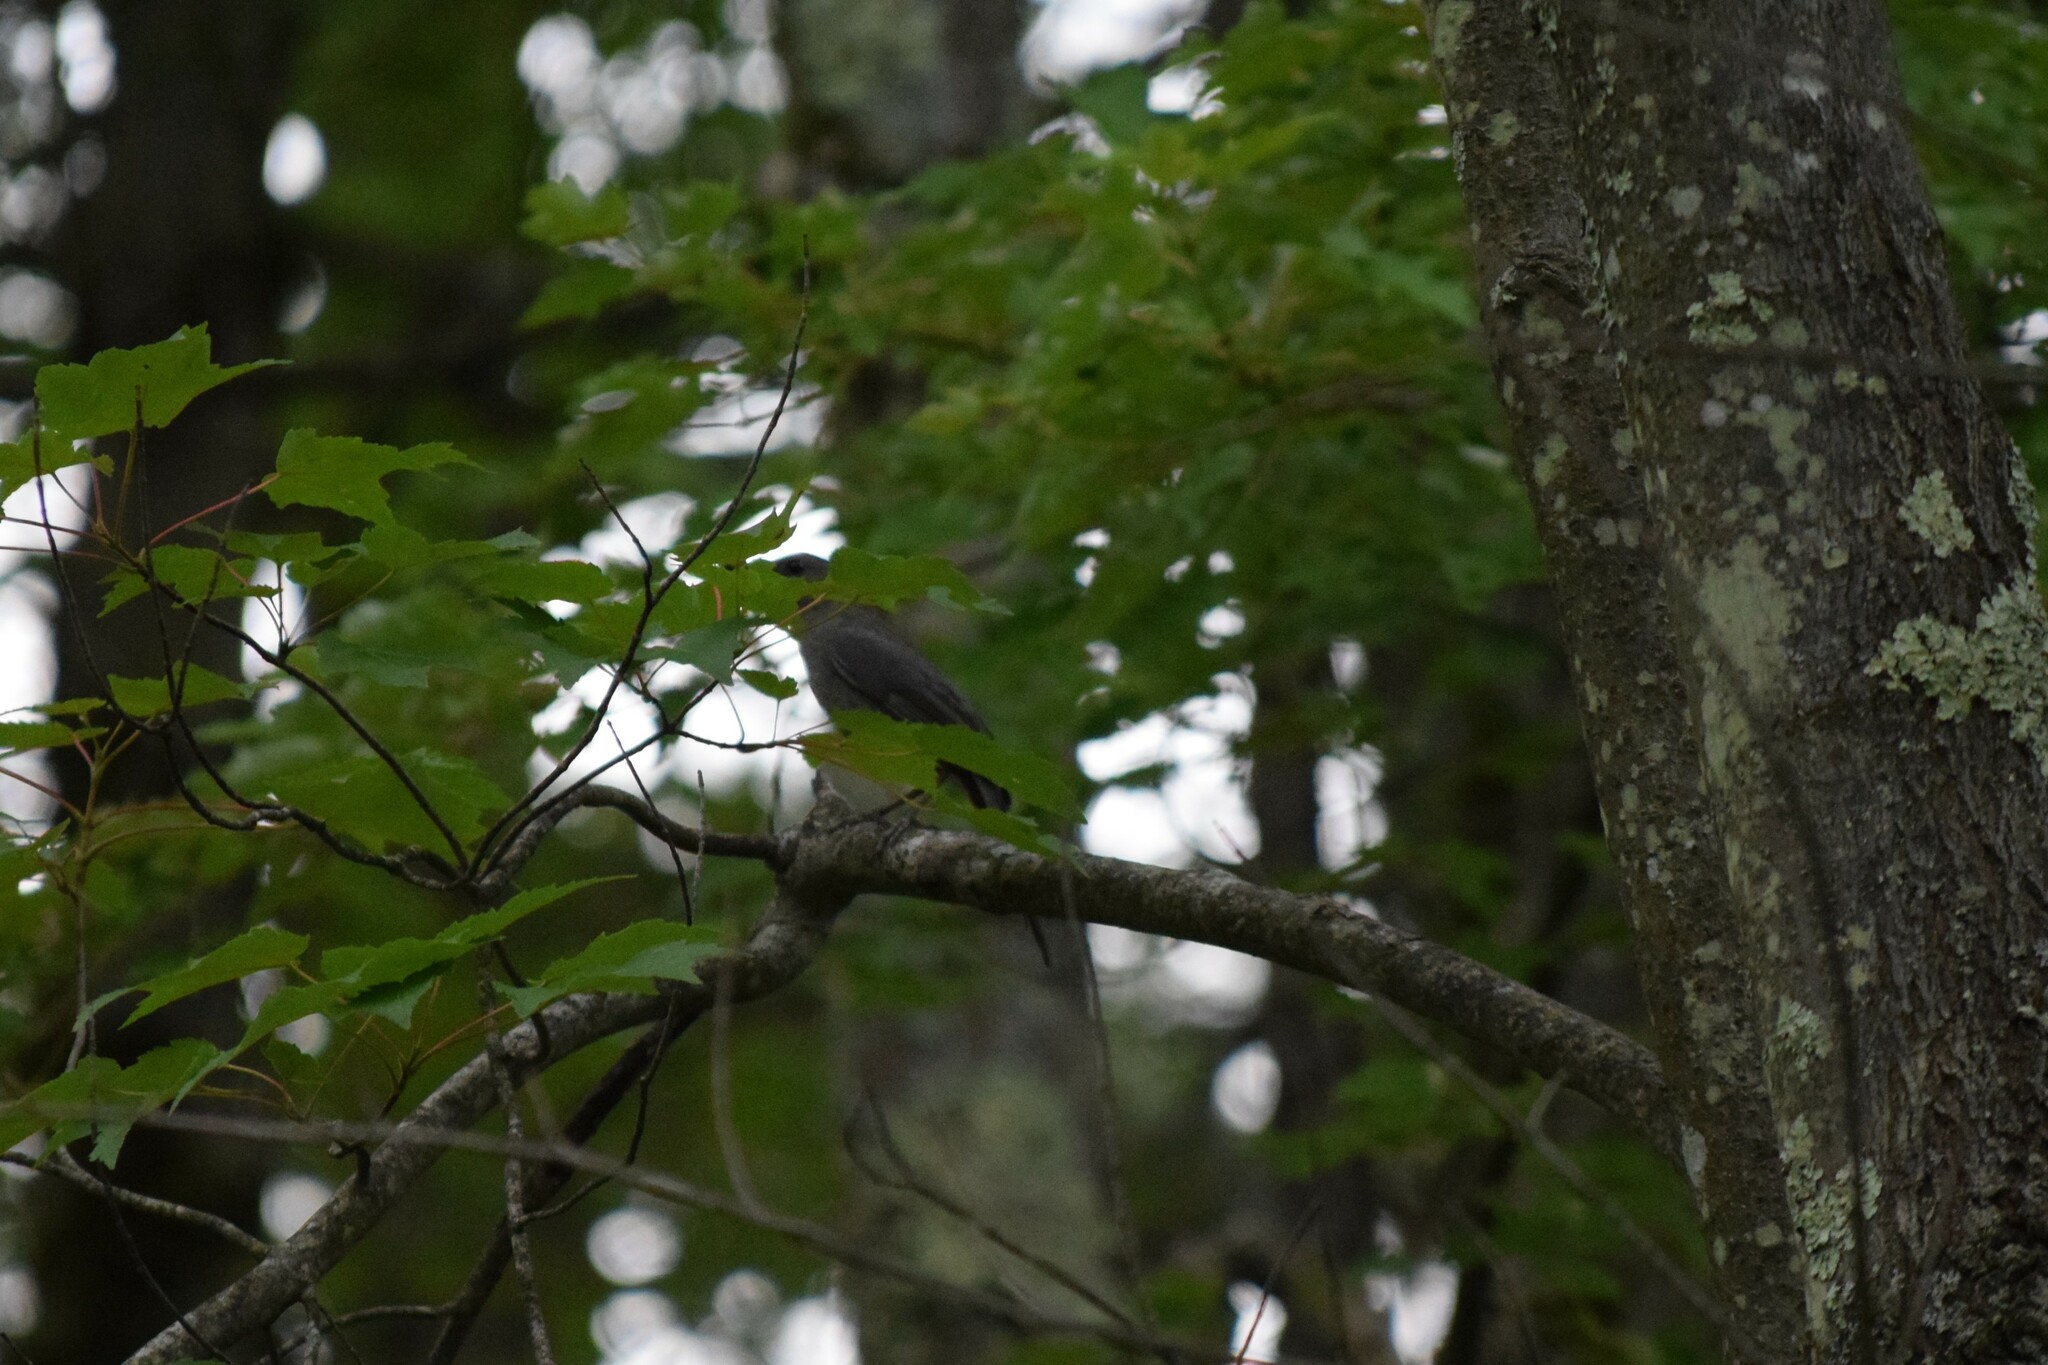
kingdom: Animalia
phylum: Chordata
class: Aves
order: Passeriformes
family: Mimidae
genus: Dumetella
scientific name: Dumetella carolinensis
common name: Gray catbird
